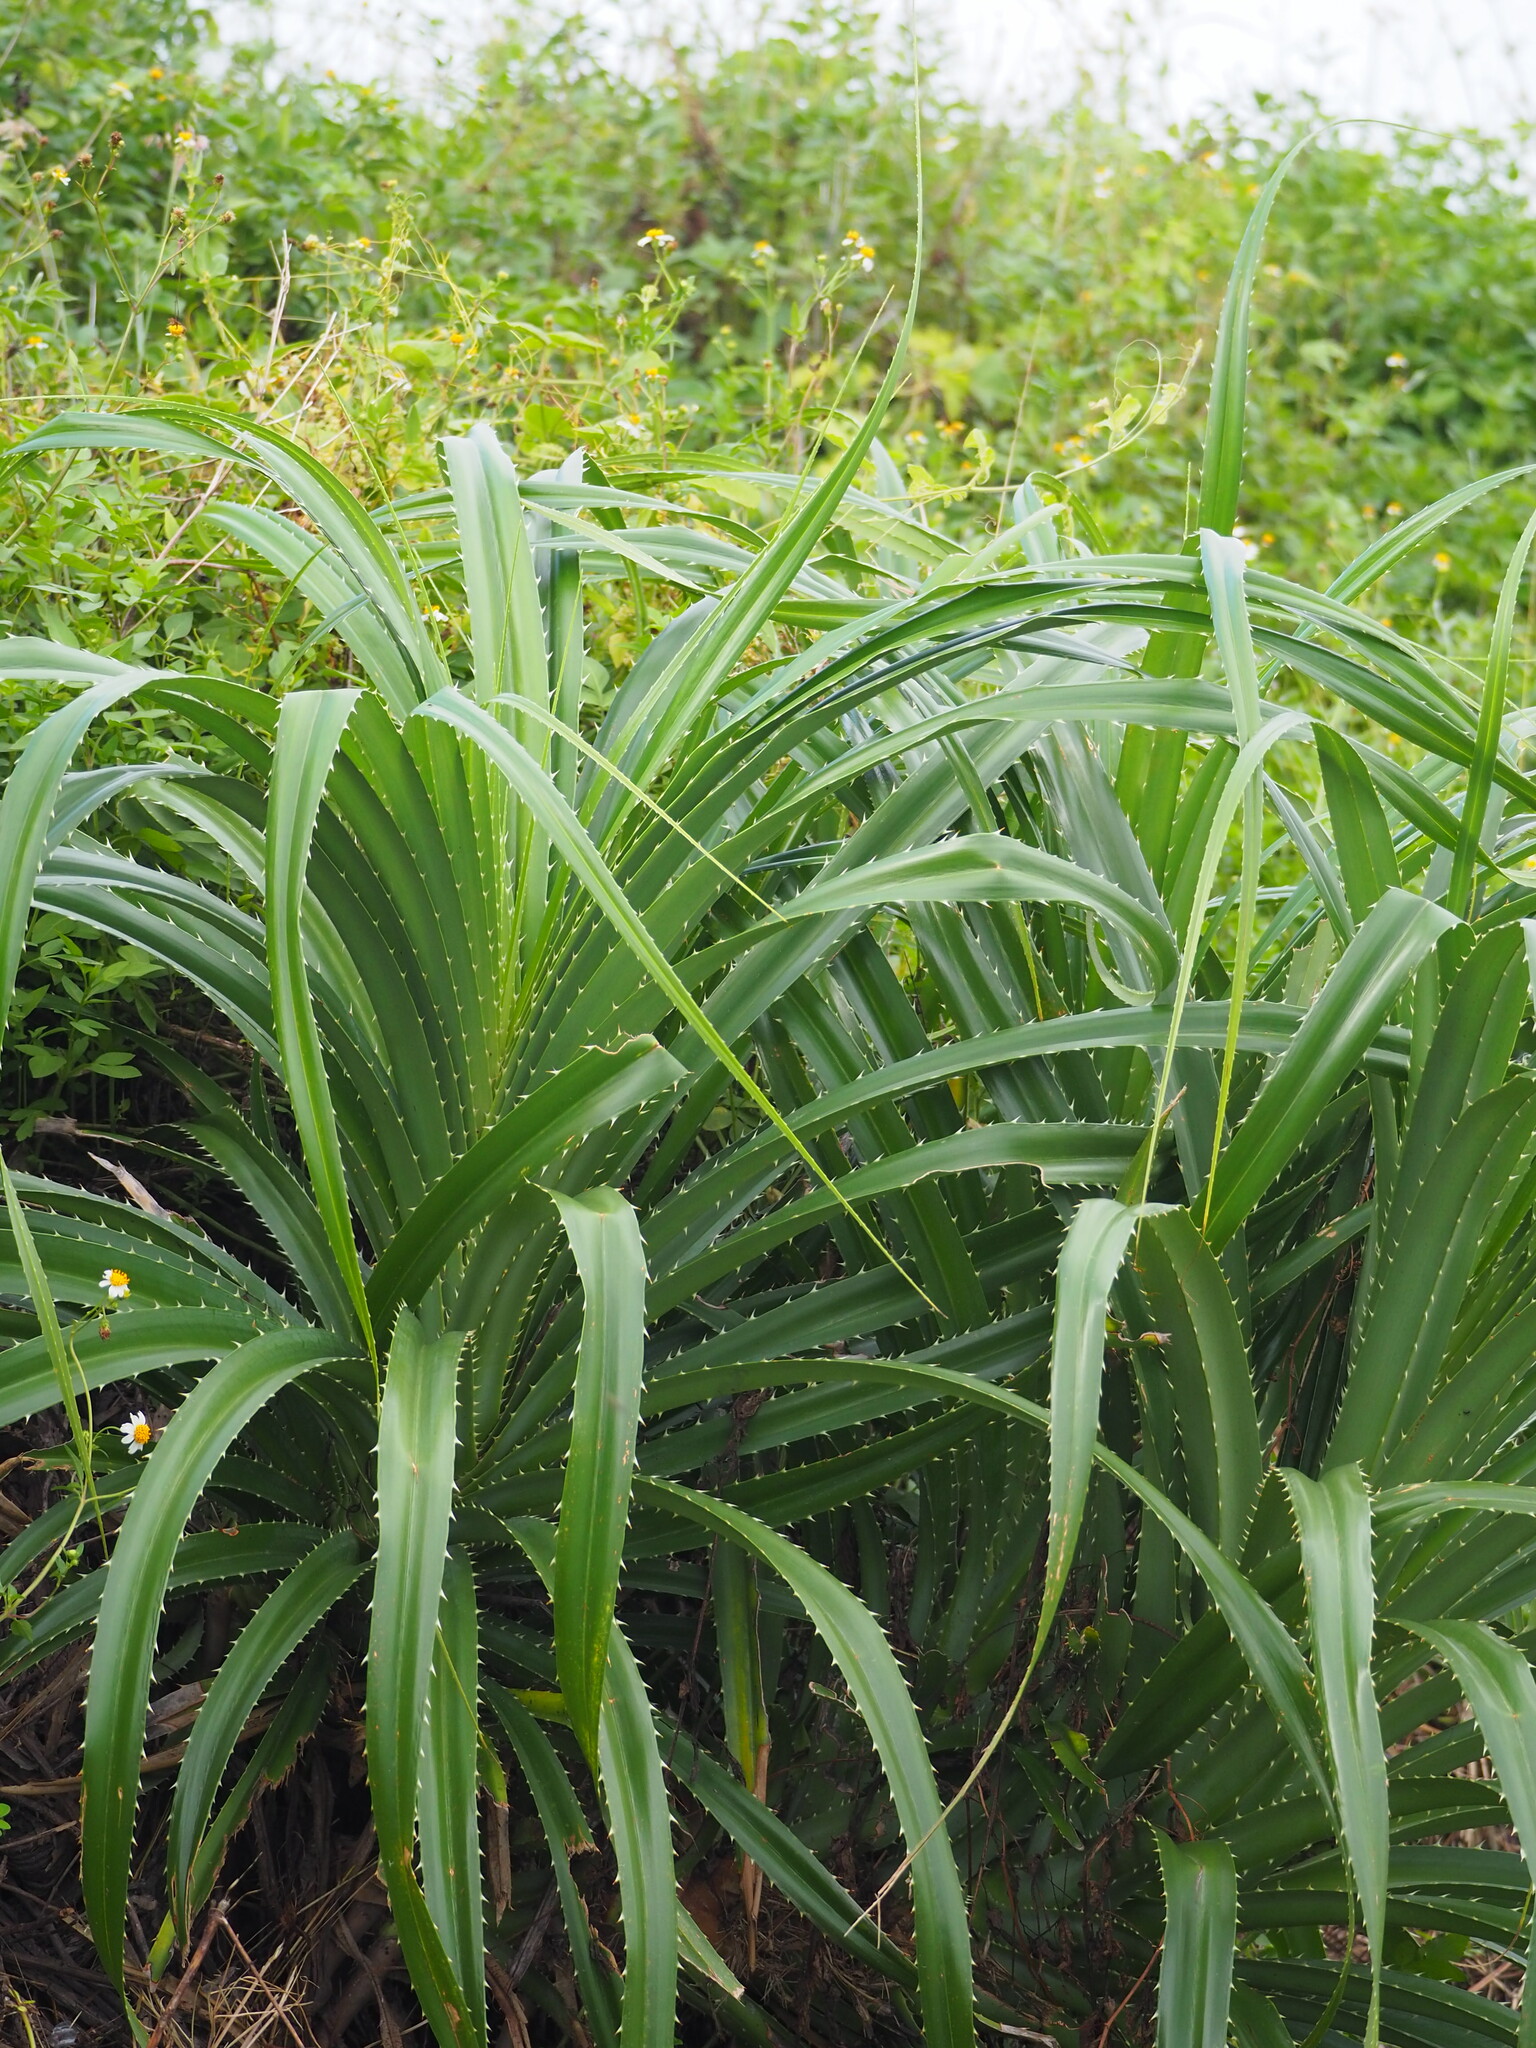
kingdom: Plantae
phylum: Tracheophyta
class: Liliopsida
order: Pandanales
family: Pandanaceae
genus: Pandanus
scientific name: Pandanus odorifer
